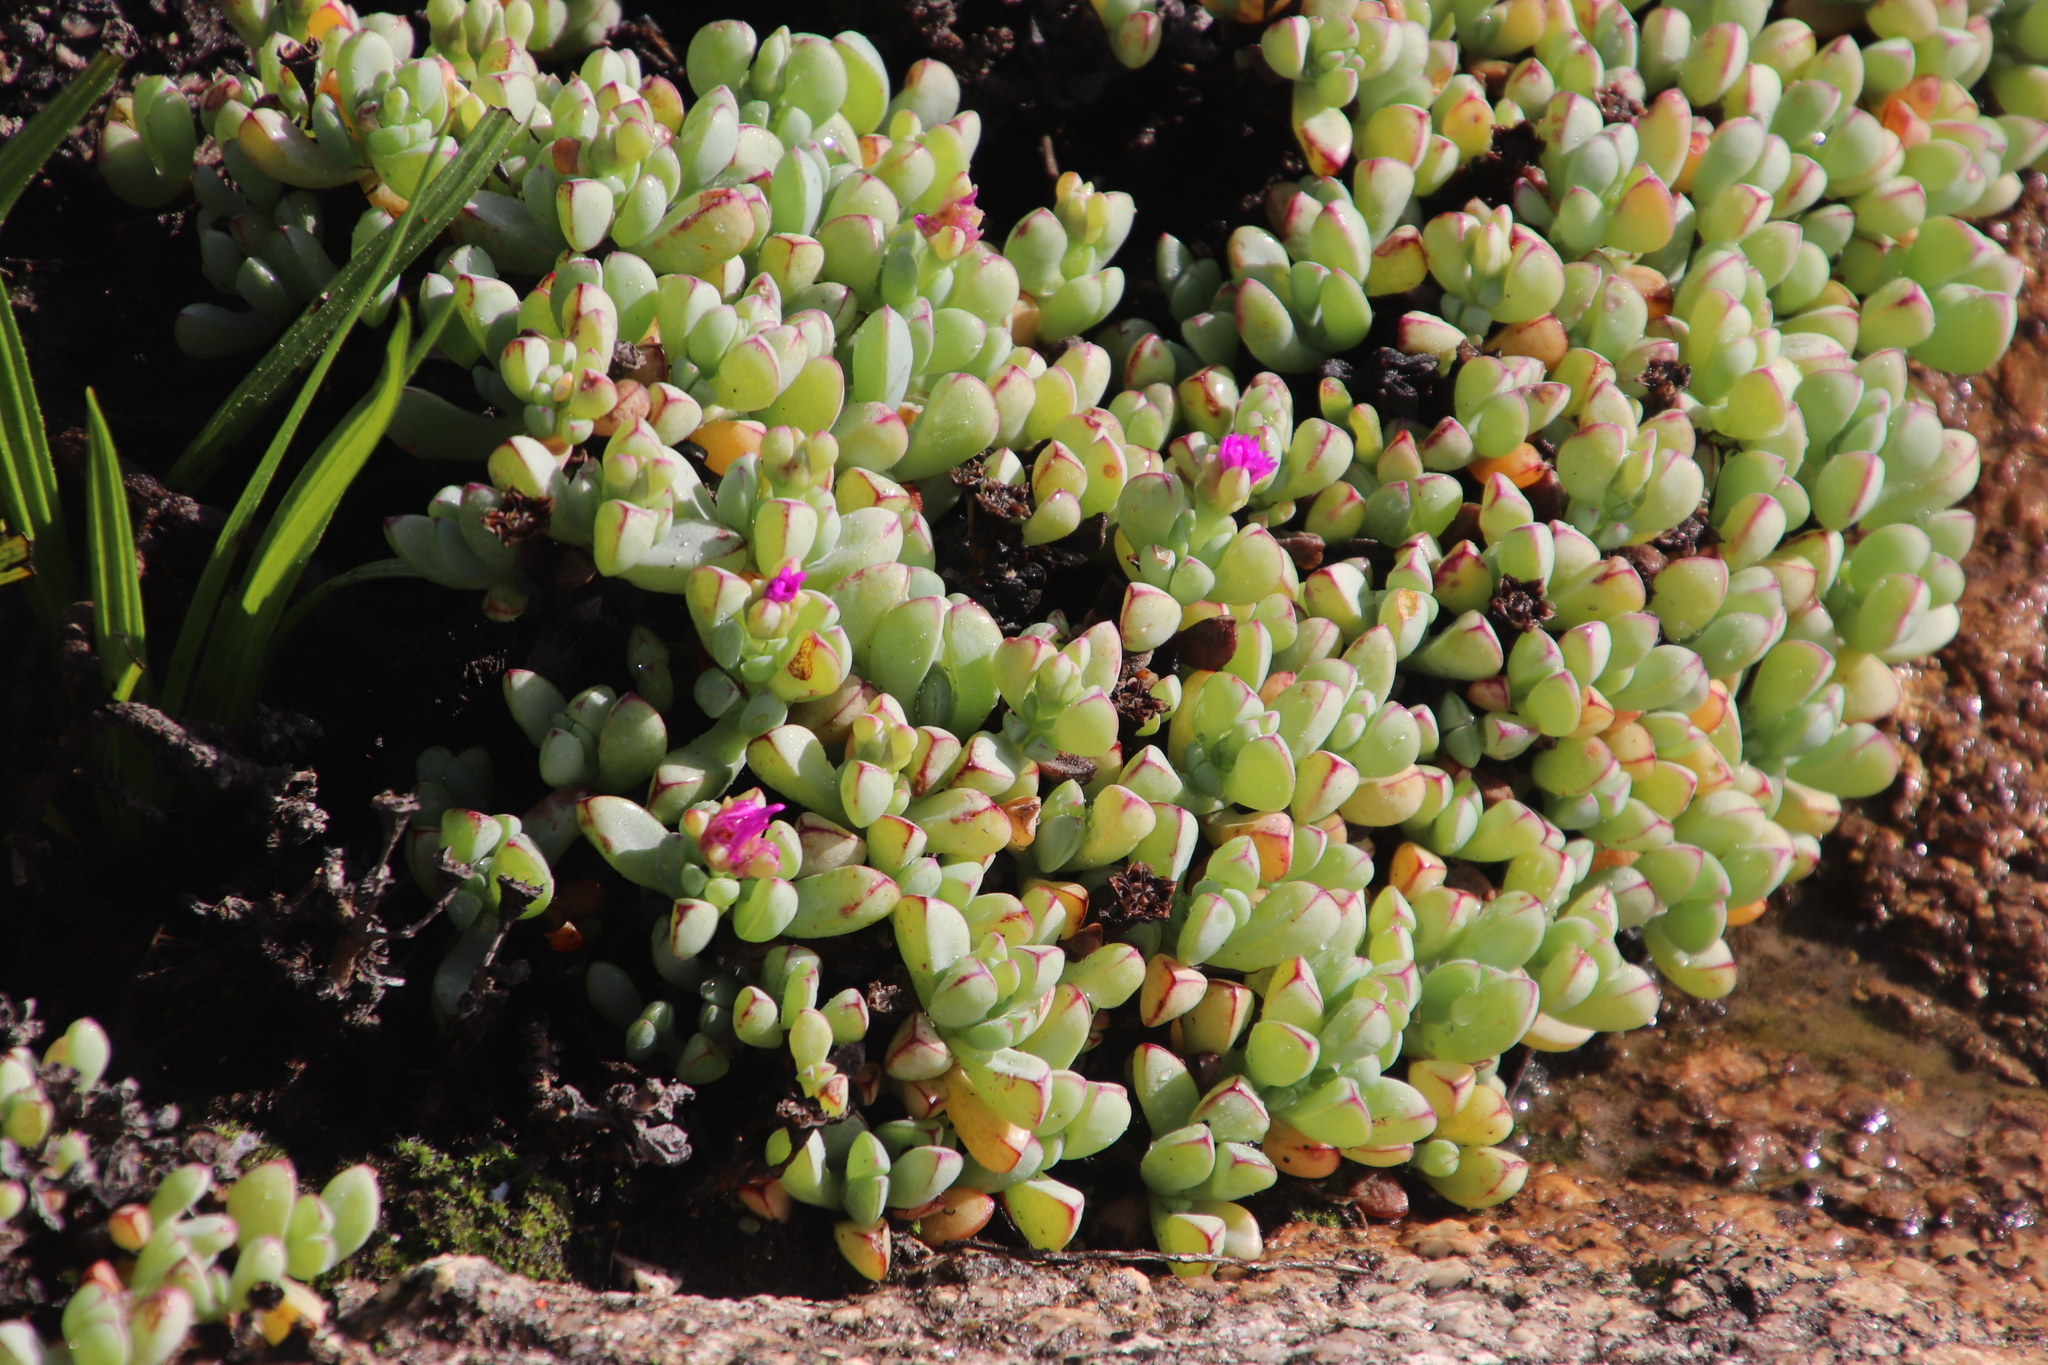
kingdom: Plantae
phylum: Tracheophyta
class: Magnoliopsida
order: Caryophyllales
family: Aizoaceae
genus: Oscularia
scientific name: Oscularia vredenburgensis
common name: Vredenberg ice plant
